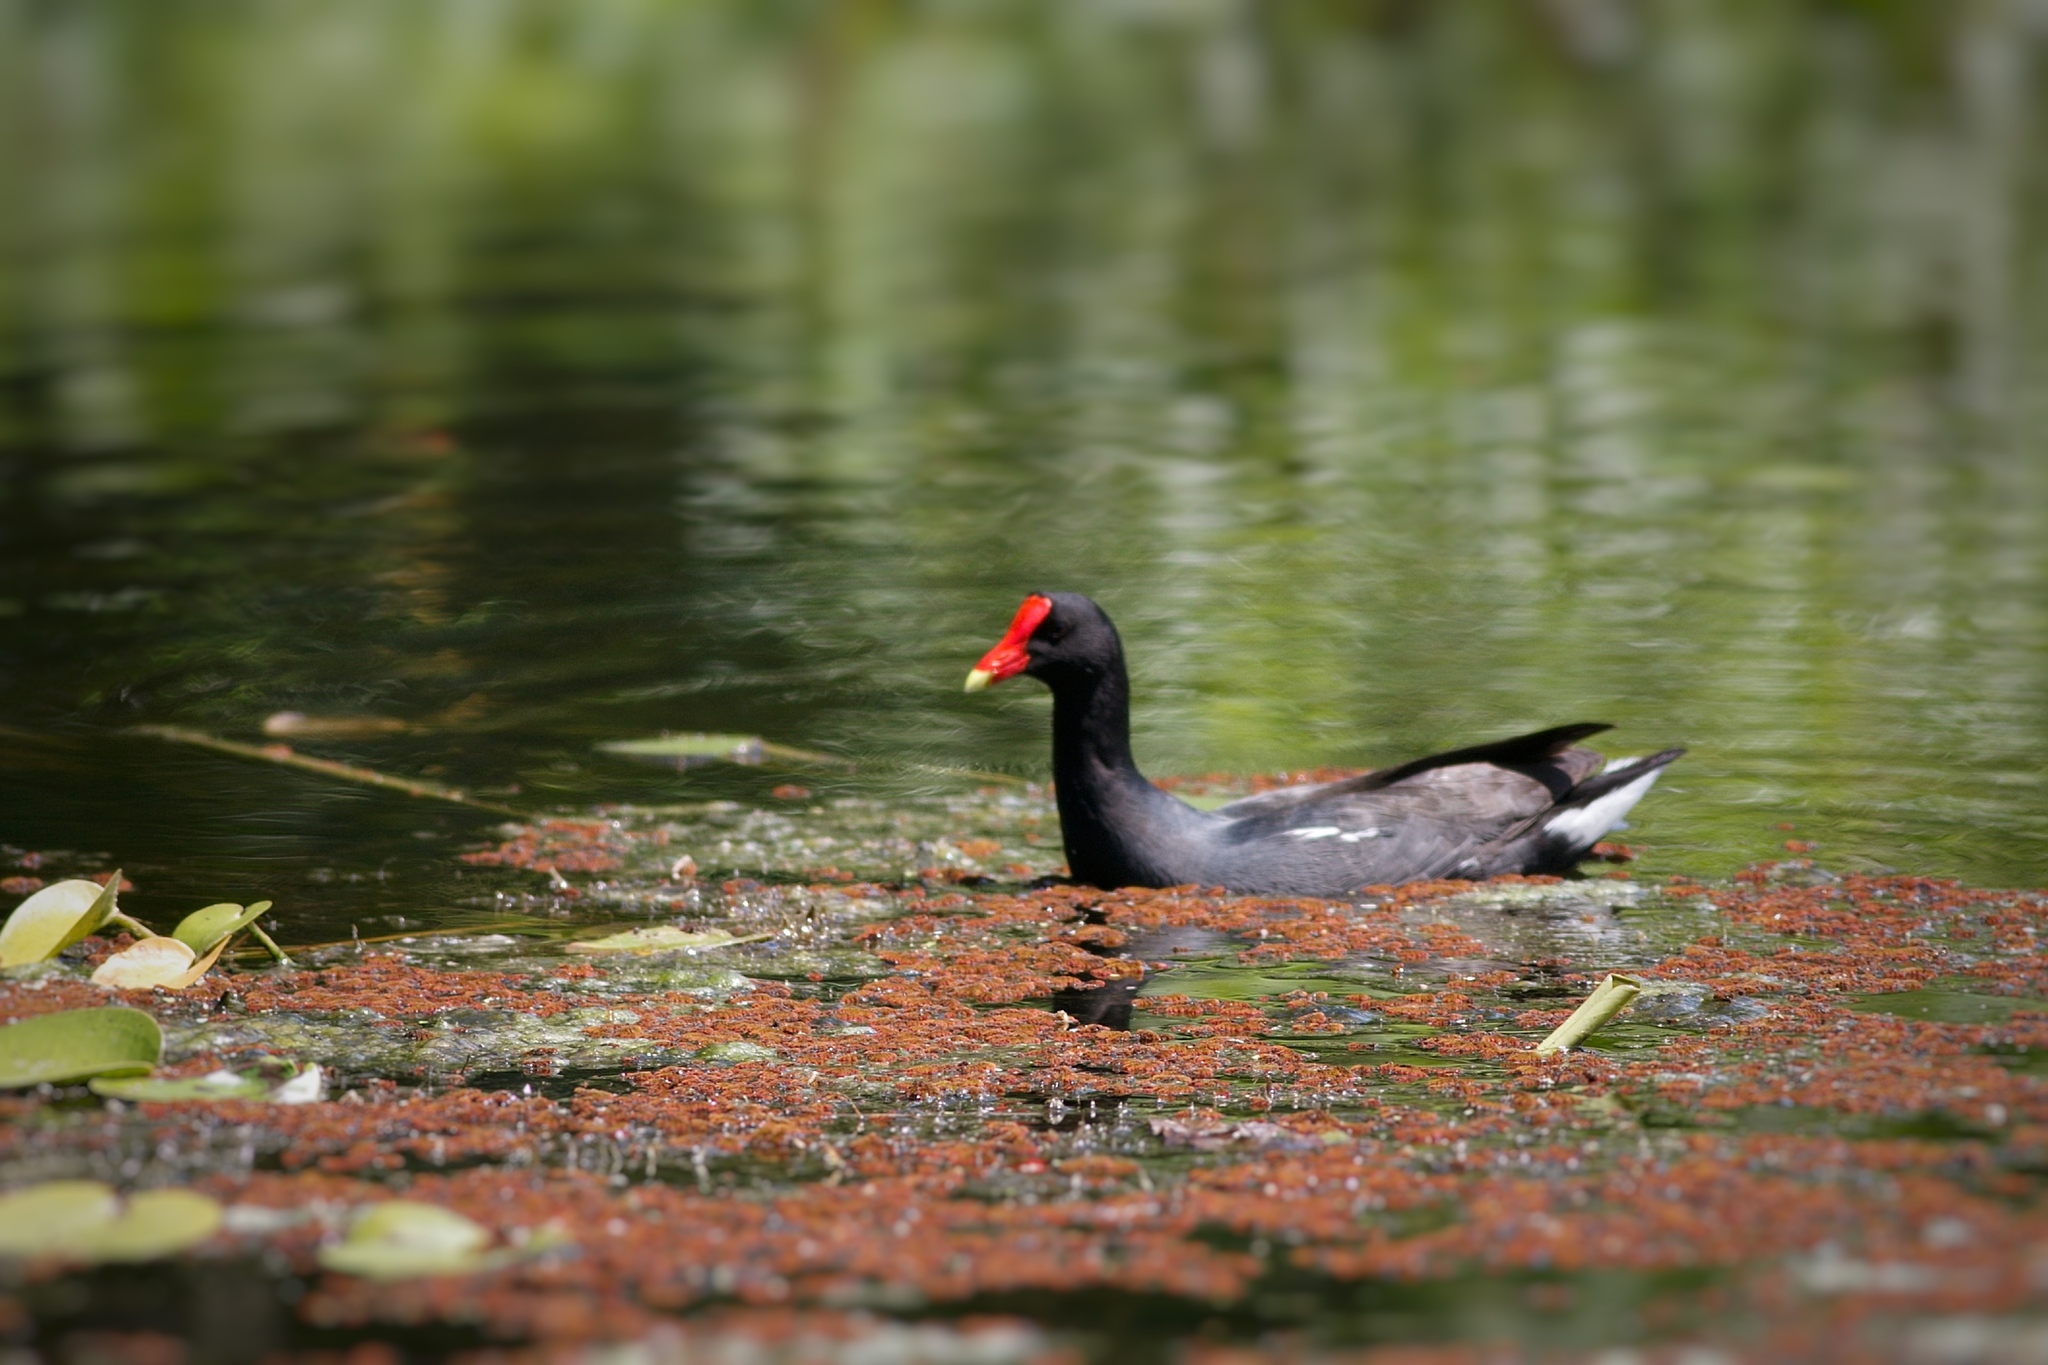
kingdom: Animalia
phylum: Chordata
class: Aves
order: Gruiformes
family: Rallidae
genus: Gallinula
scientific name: Gallinula chloropus
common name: Common moorhen
